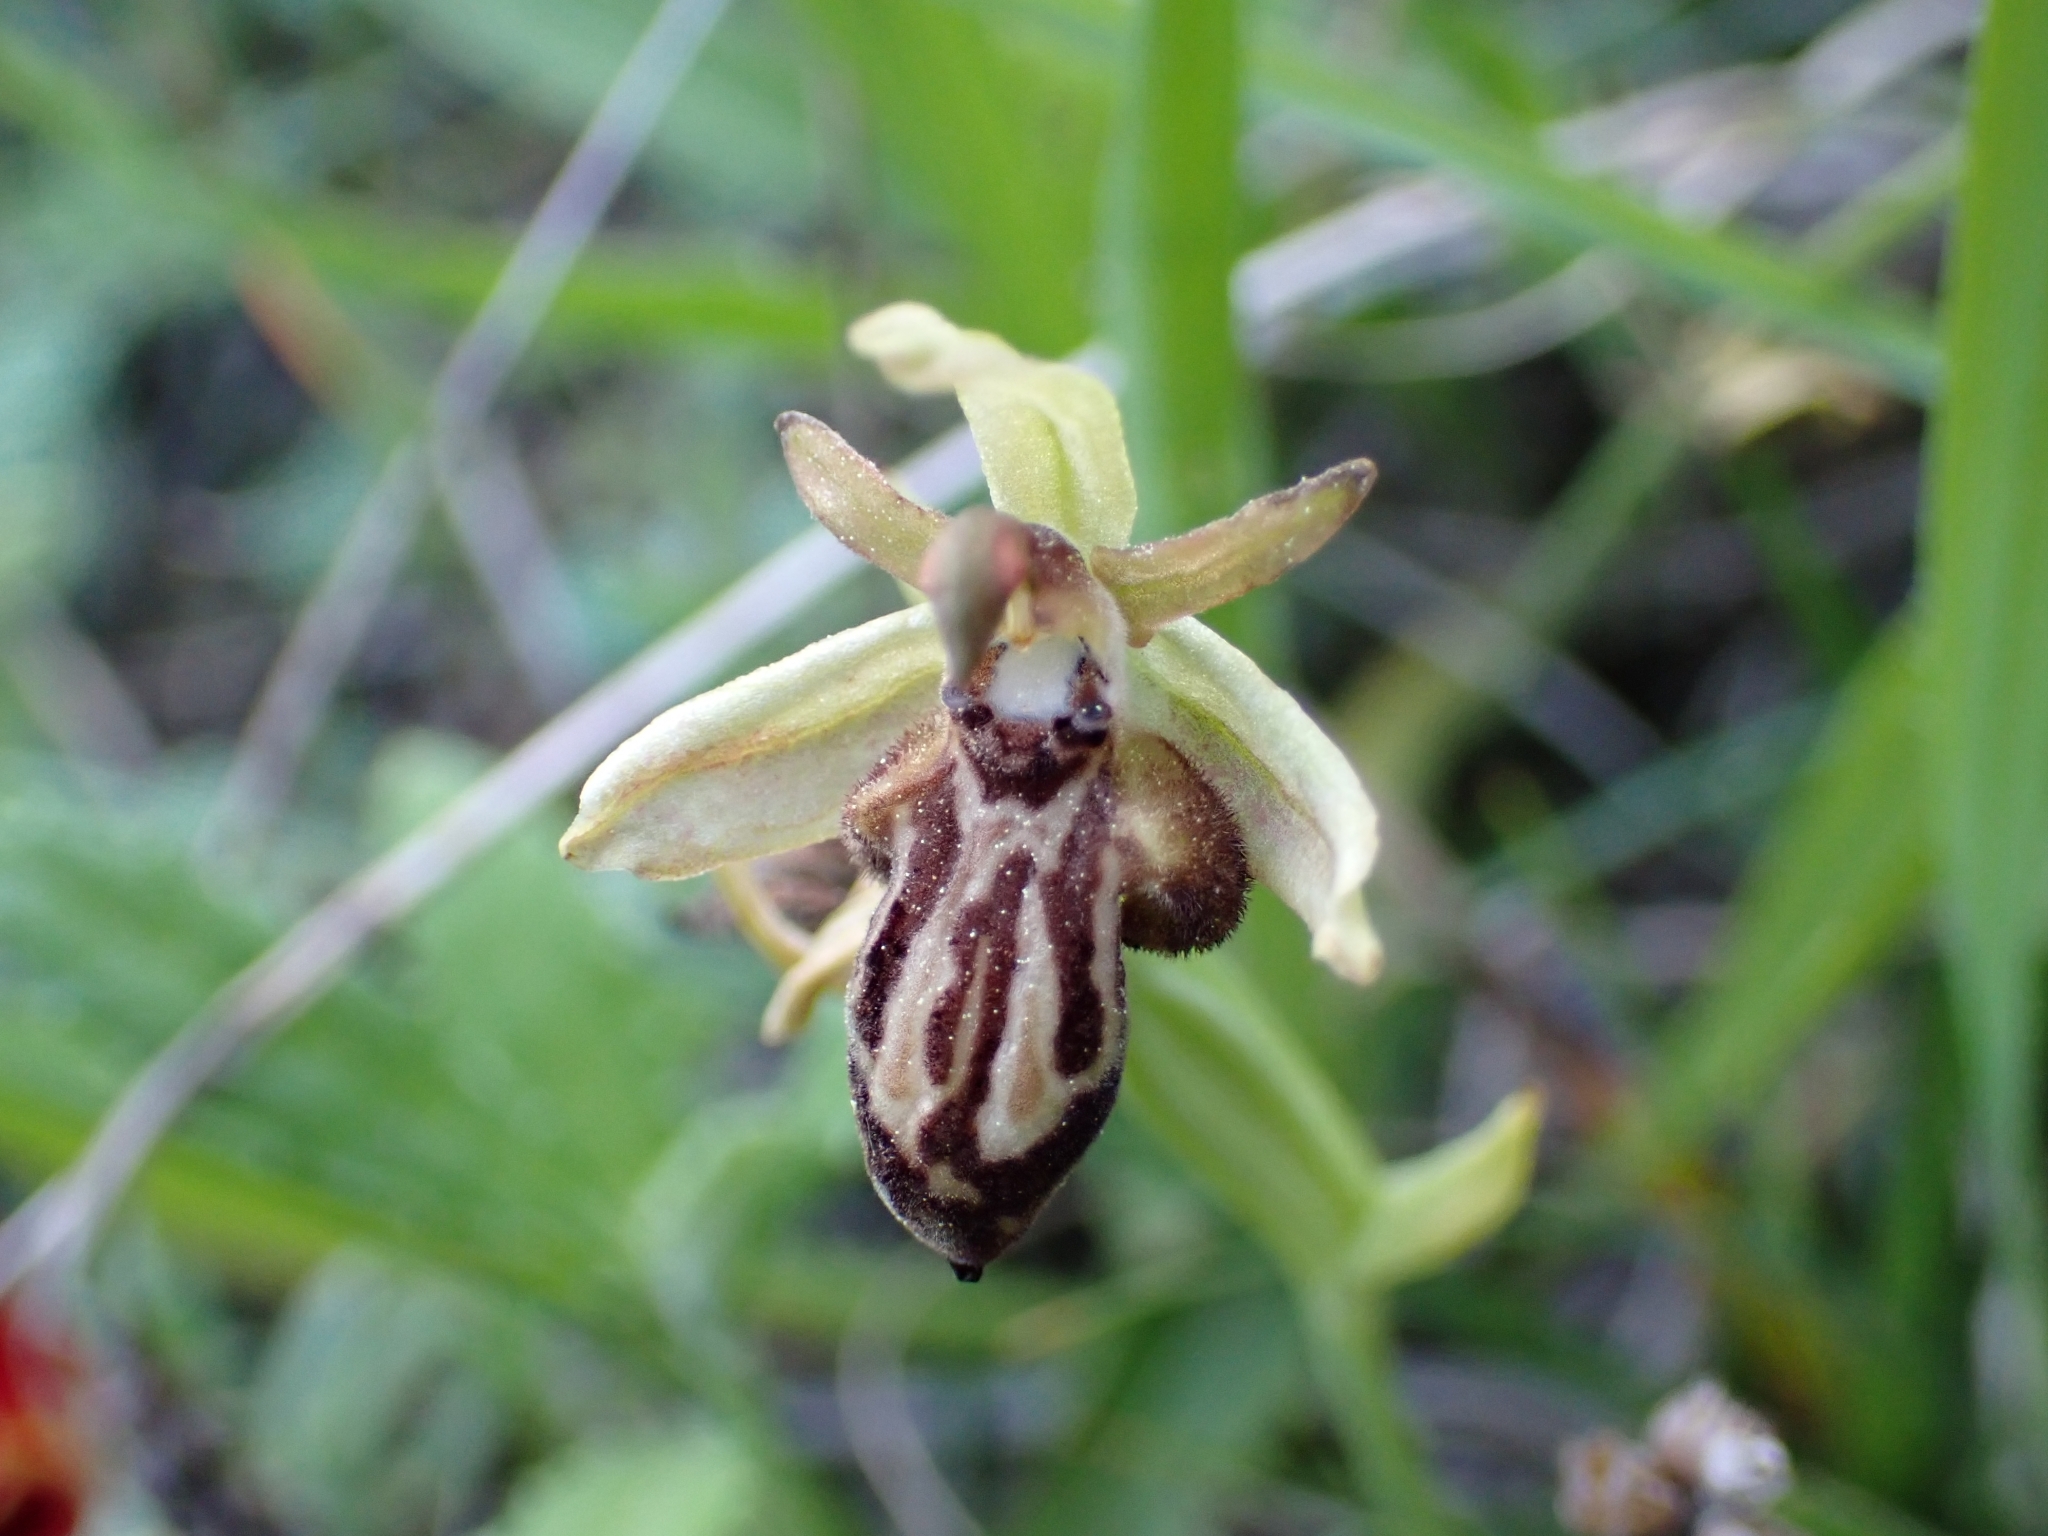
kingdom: Plantae
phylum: Tracheophyta
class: Liliopsida
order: Asparagales
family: Orchidaceae
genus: Ophrys
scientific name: Ophrys cretica
